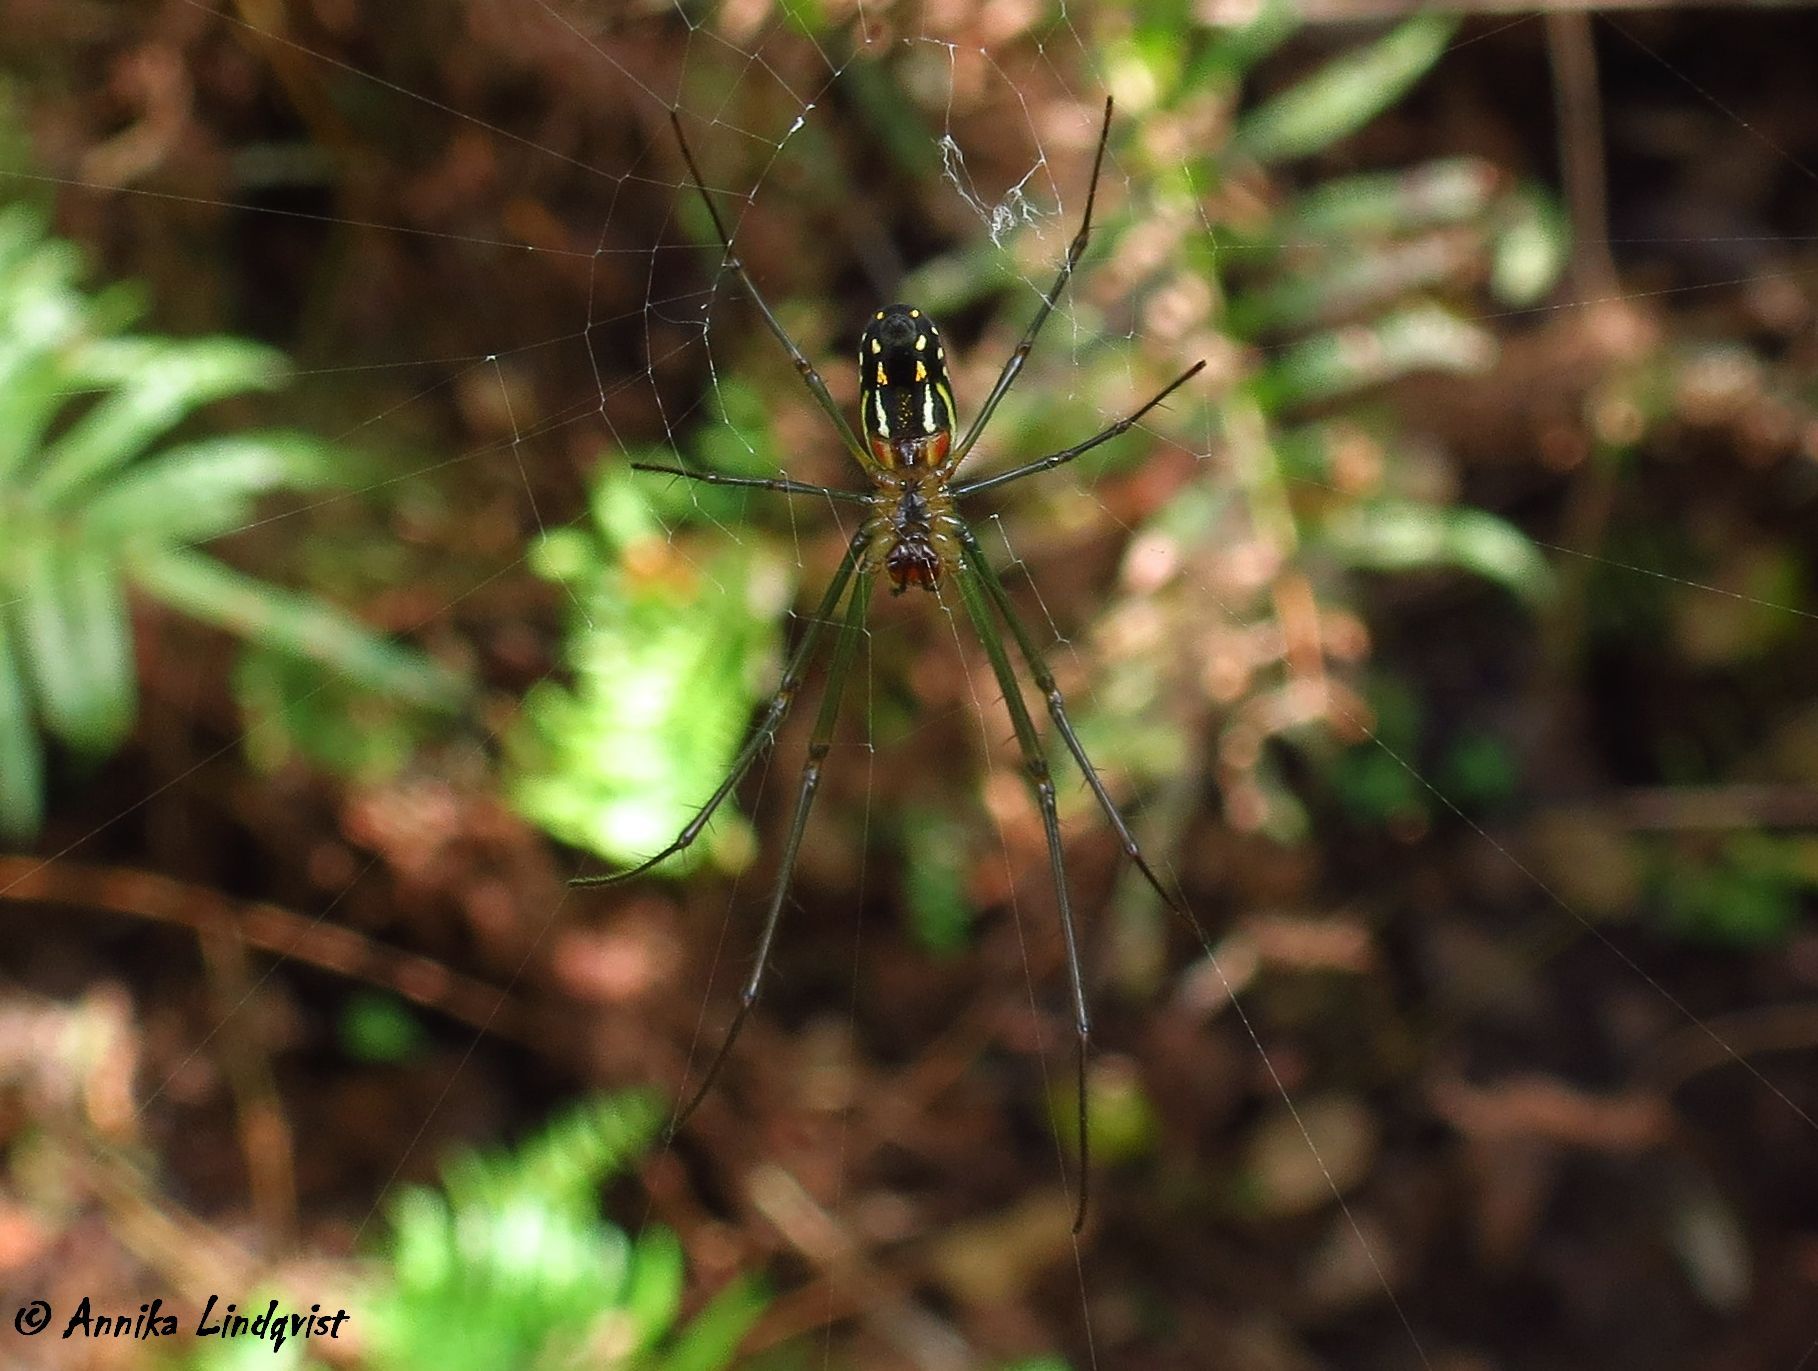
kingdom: Animalia
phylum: Arthropoda
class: Arachnida
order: Araneae
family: Tetragnathidae
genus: Leucauge
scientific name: Leucauge argyra
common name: Longjawed orb weavers
